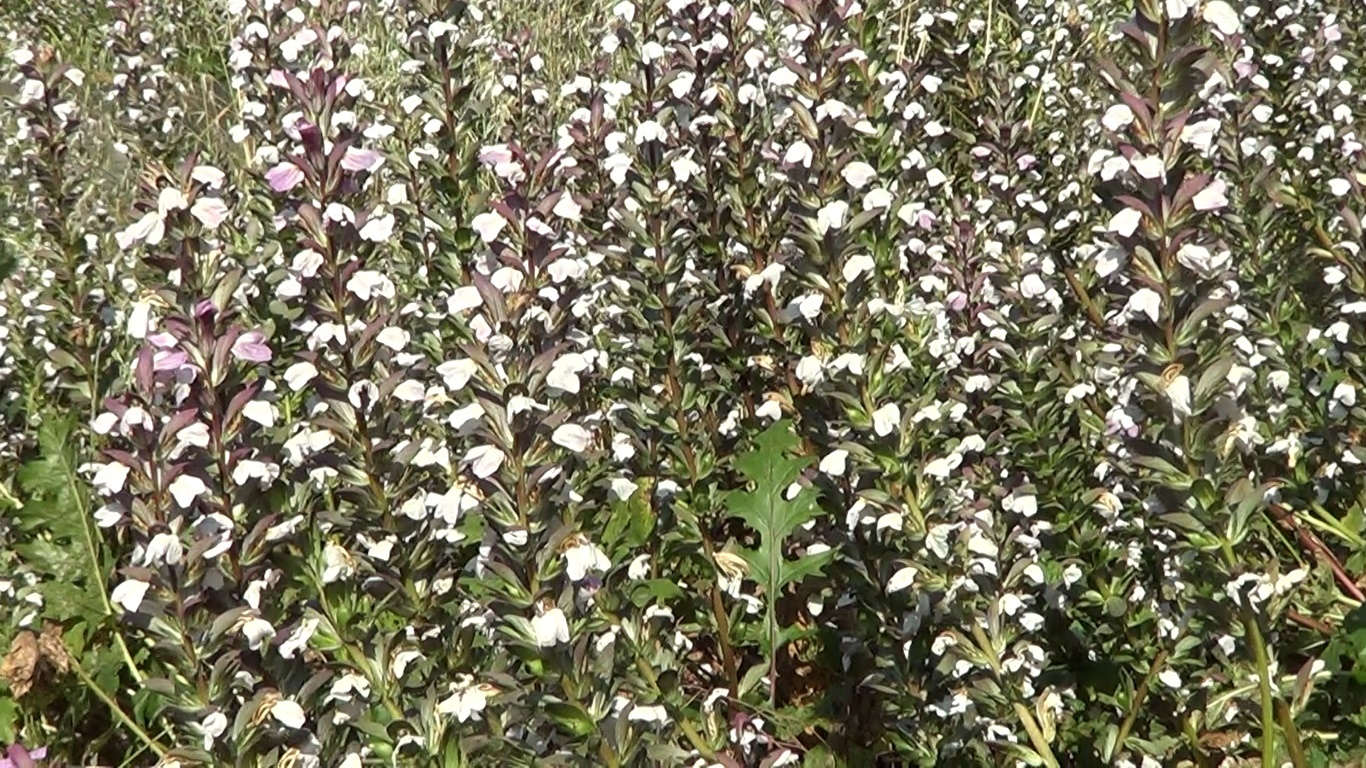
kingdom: Plantae
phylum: Tracheophyta
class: Magnoliopsida
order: Lamiales
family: Acanthaceae
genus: Acanthus
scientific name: Acanthus mollis
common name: Bear's-breech
